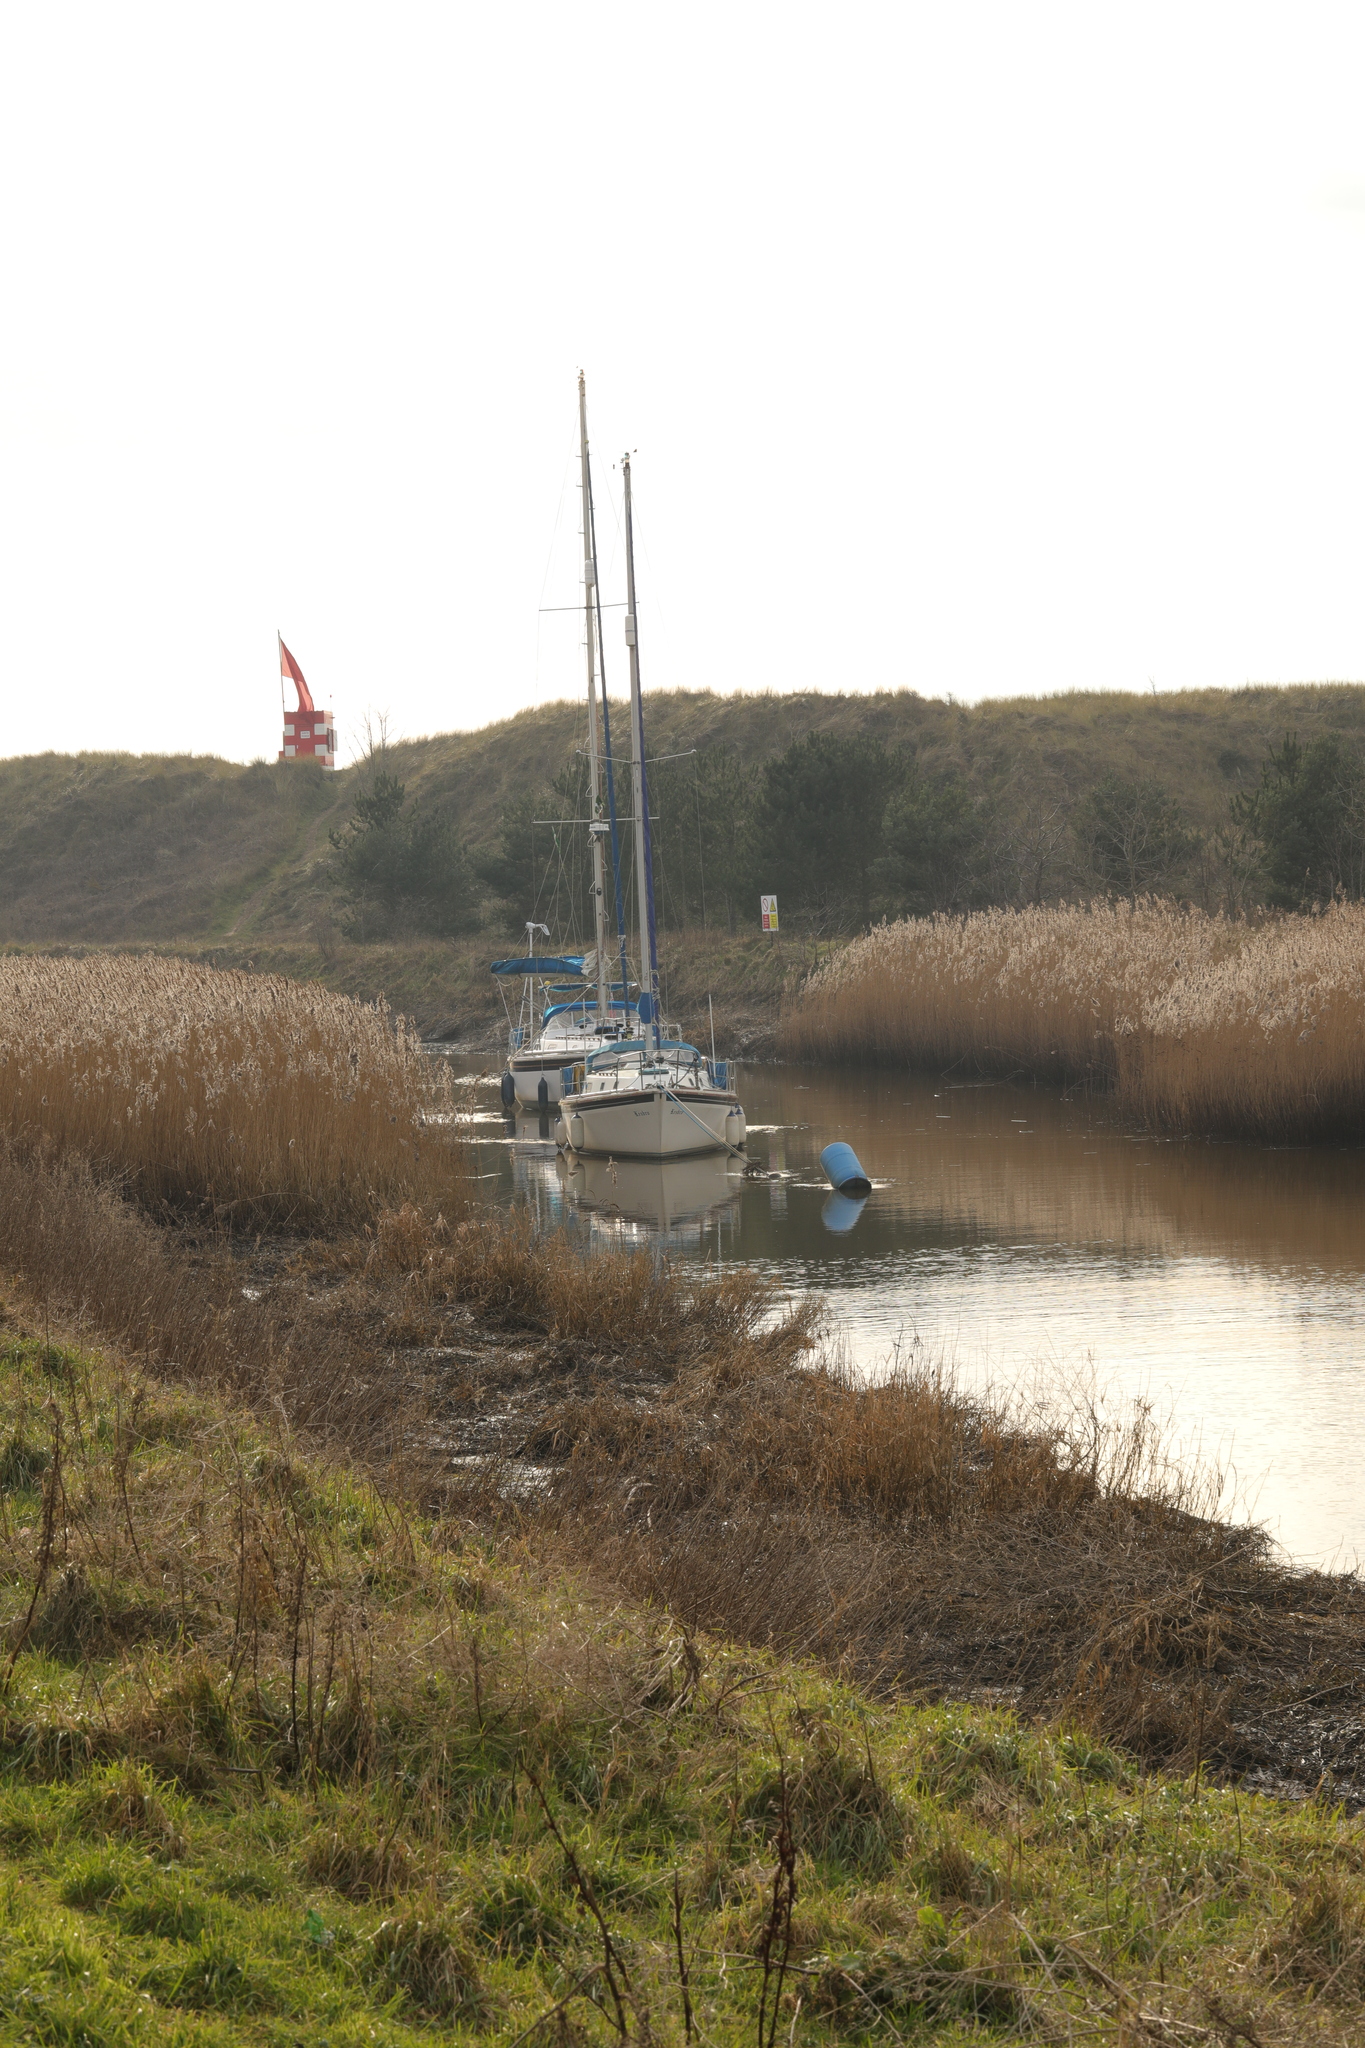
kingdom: Plantae
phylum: Tracheophyta
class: Liliopsida
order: Poales
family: Poaceae
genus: Phragmites
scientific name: Phragmites australis
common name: Common reed
